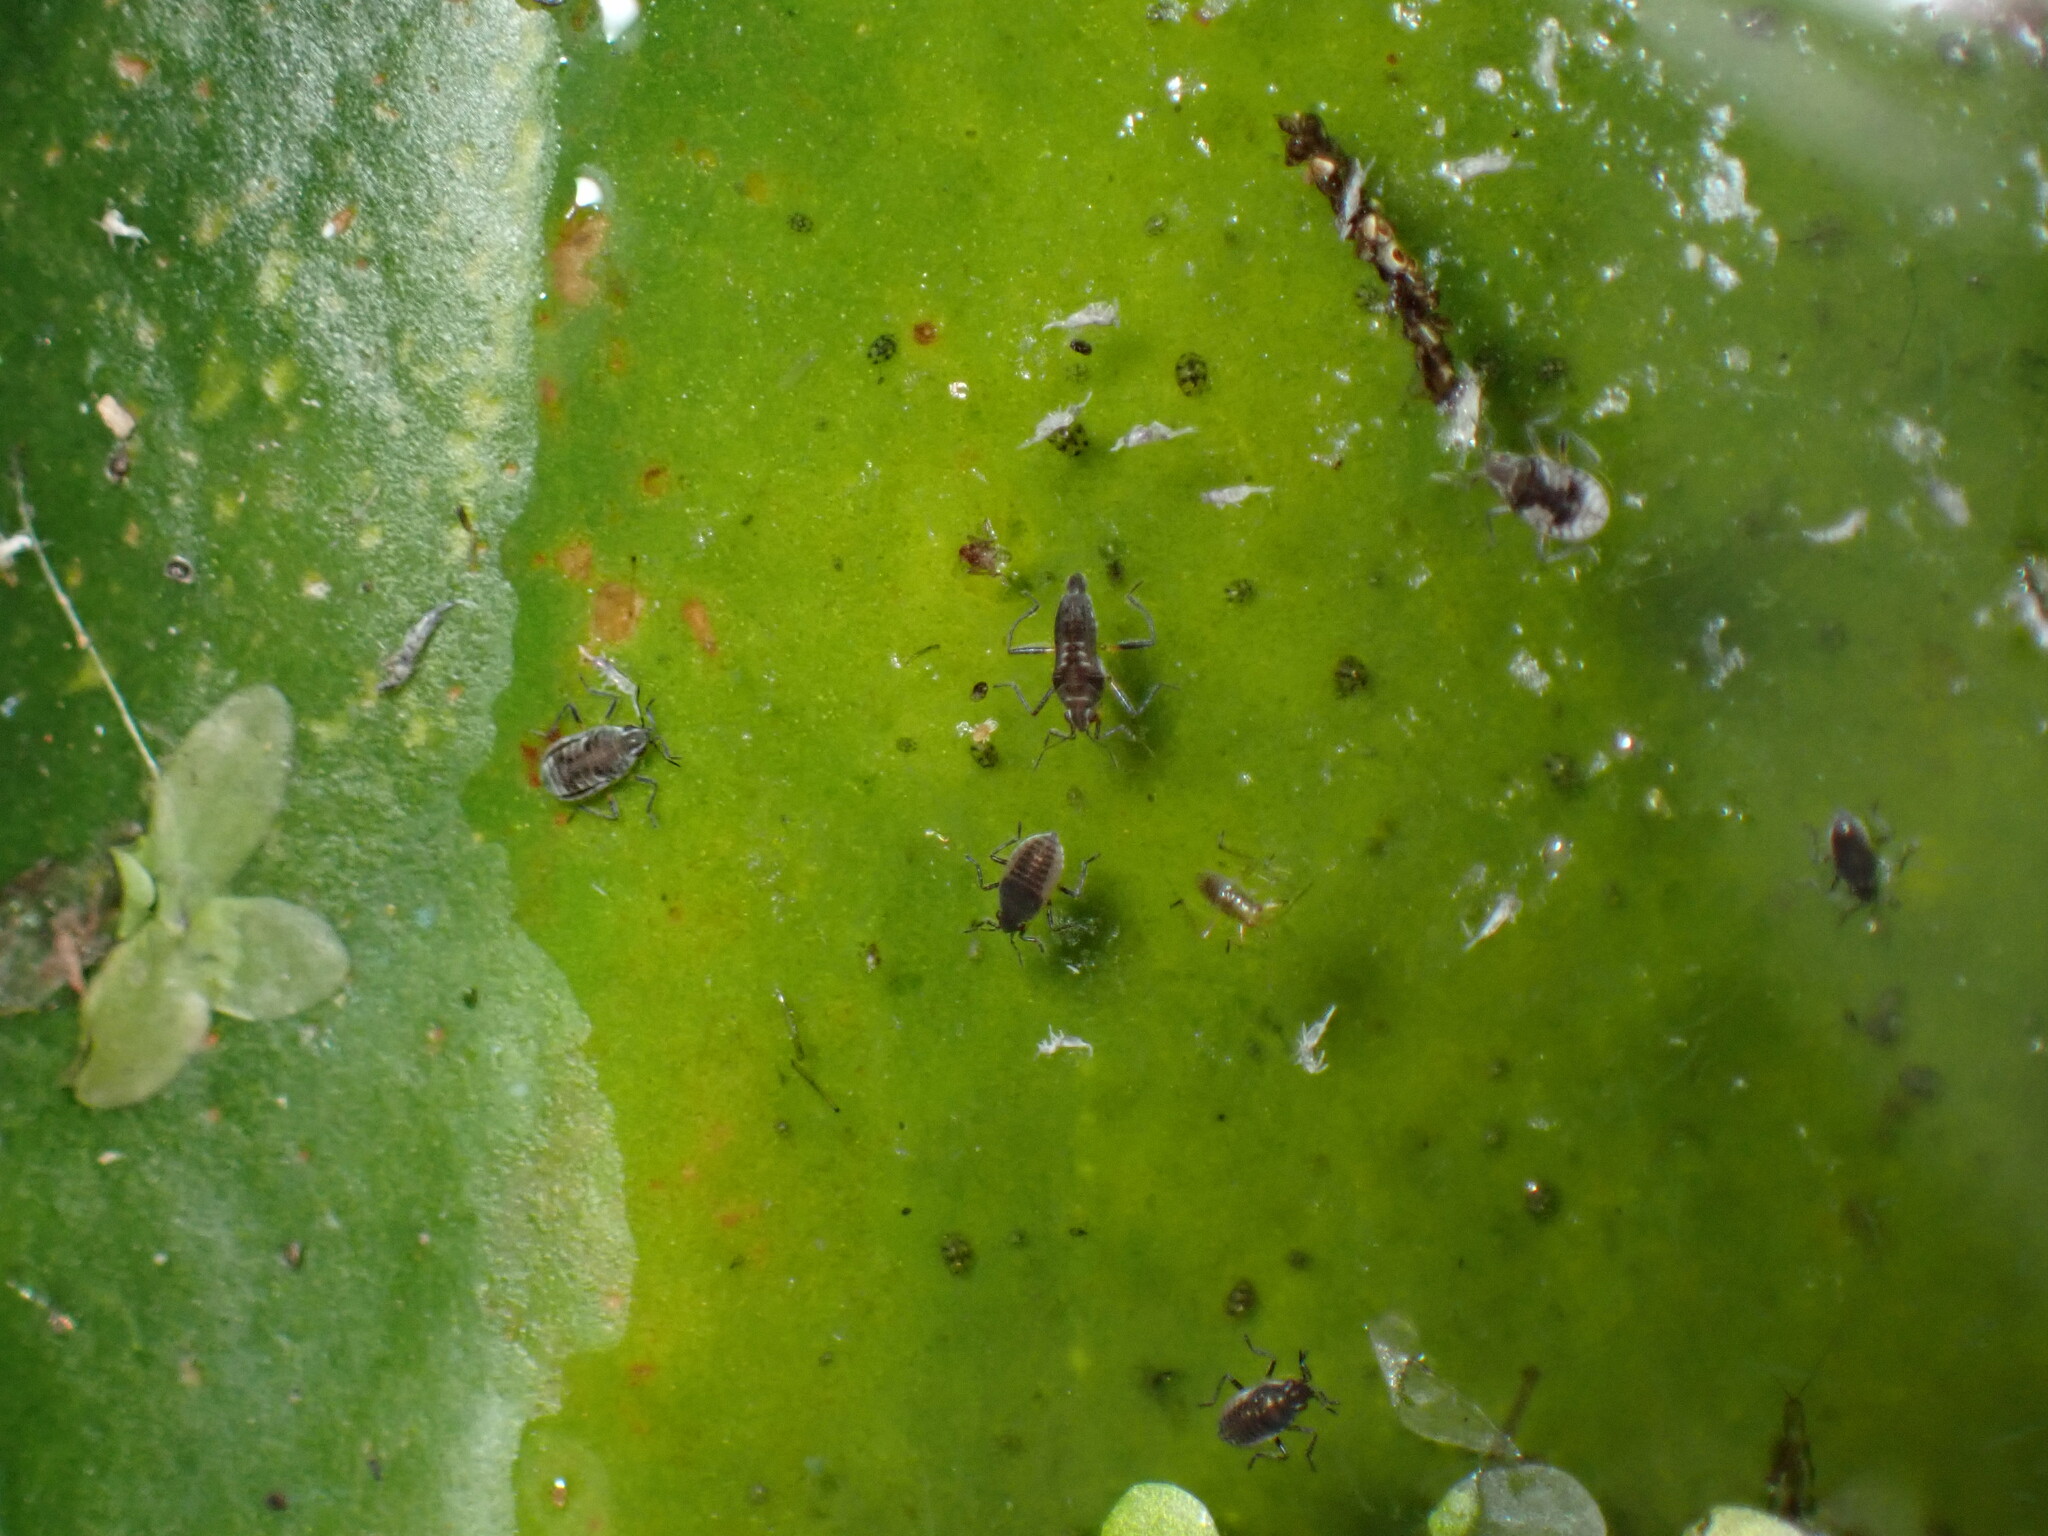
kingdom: Animalia
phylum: Arthropoda
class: Insecta
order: Hemiptera
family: Veliidae
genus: Microvelia
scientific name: Microvelia pulchella
